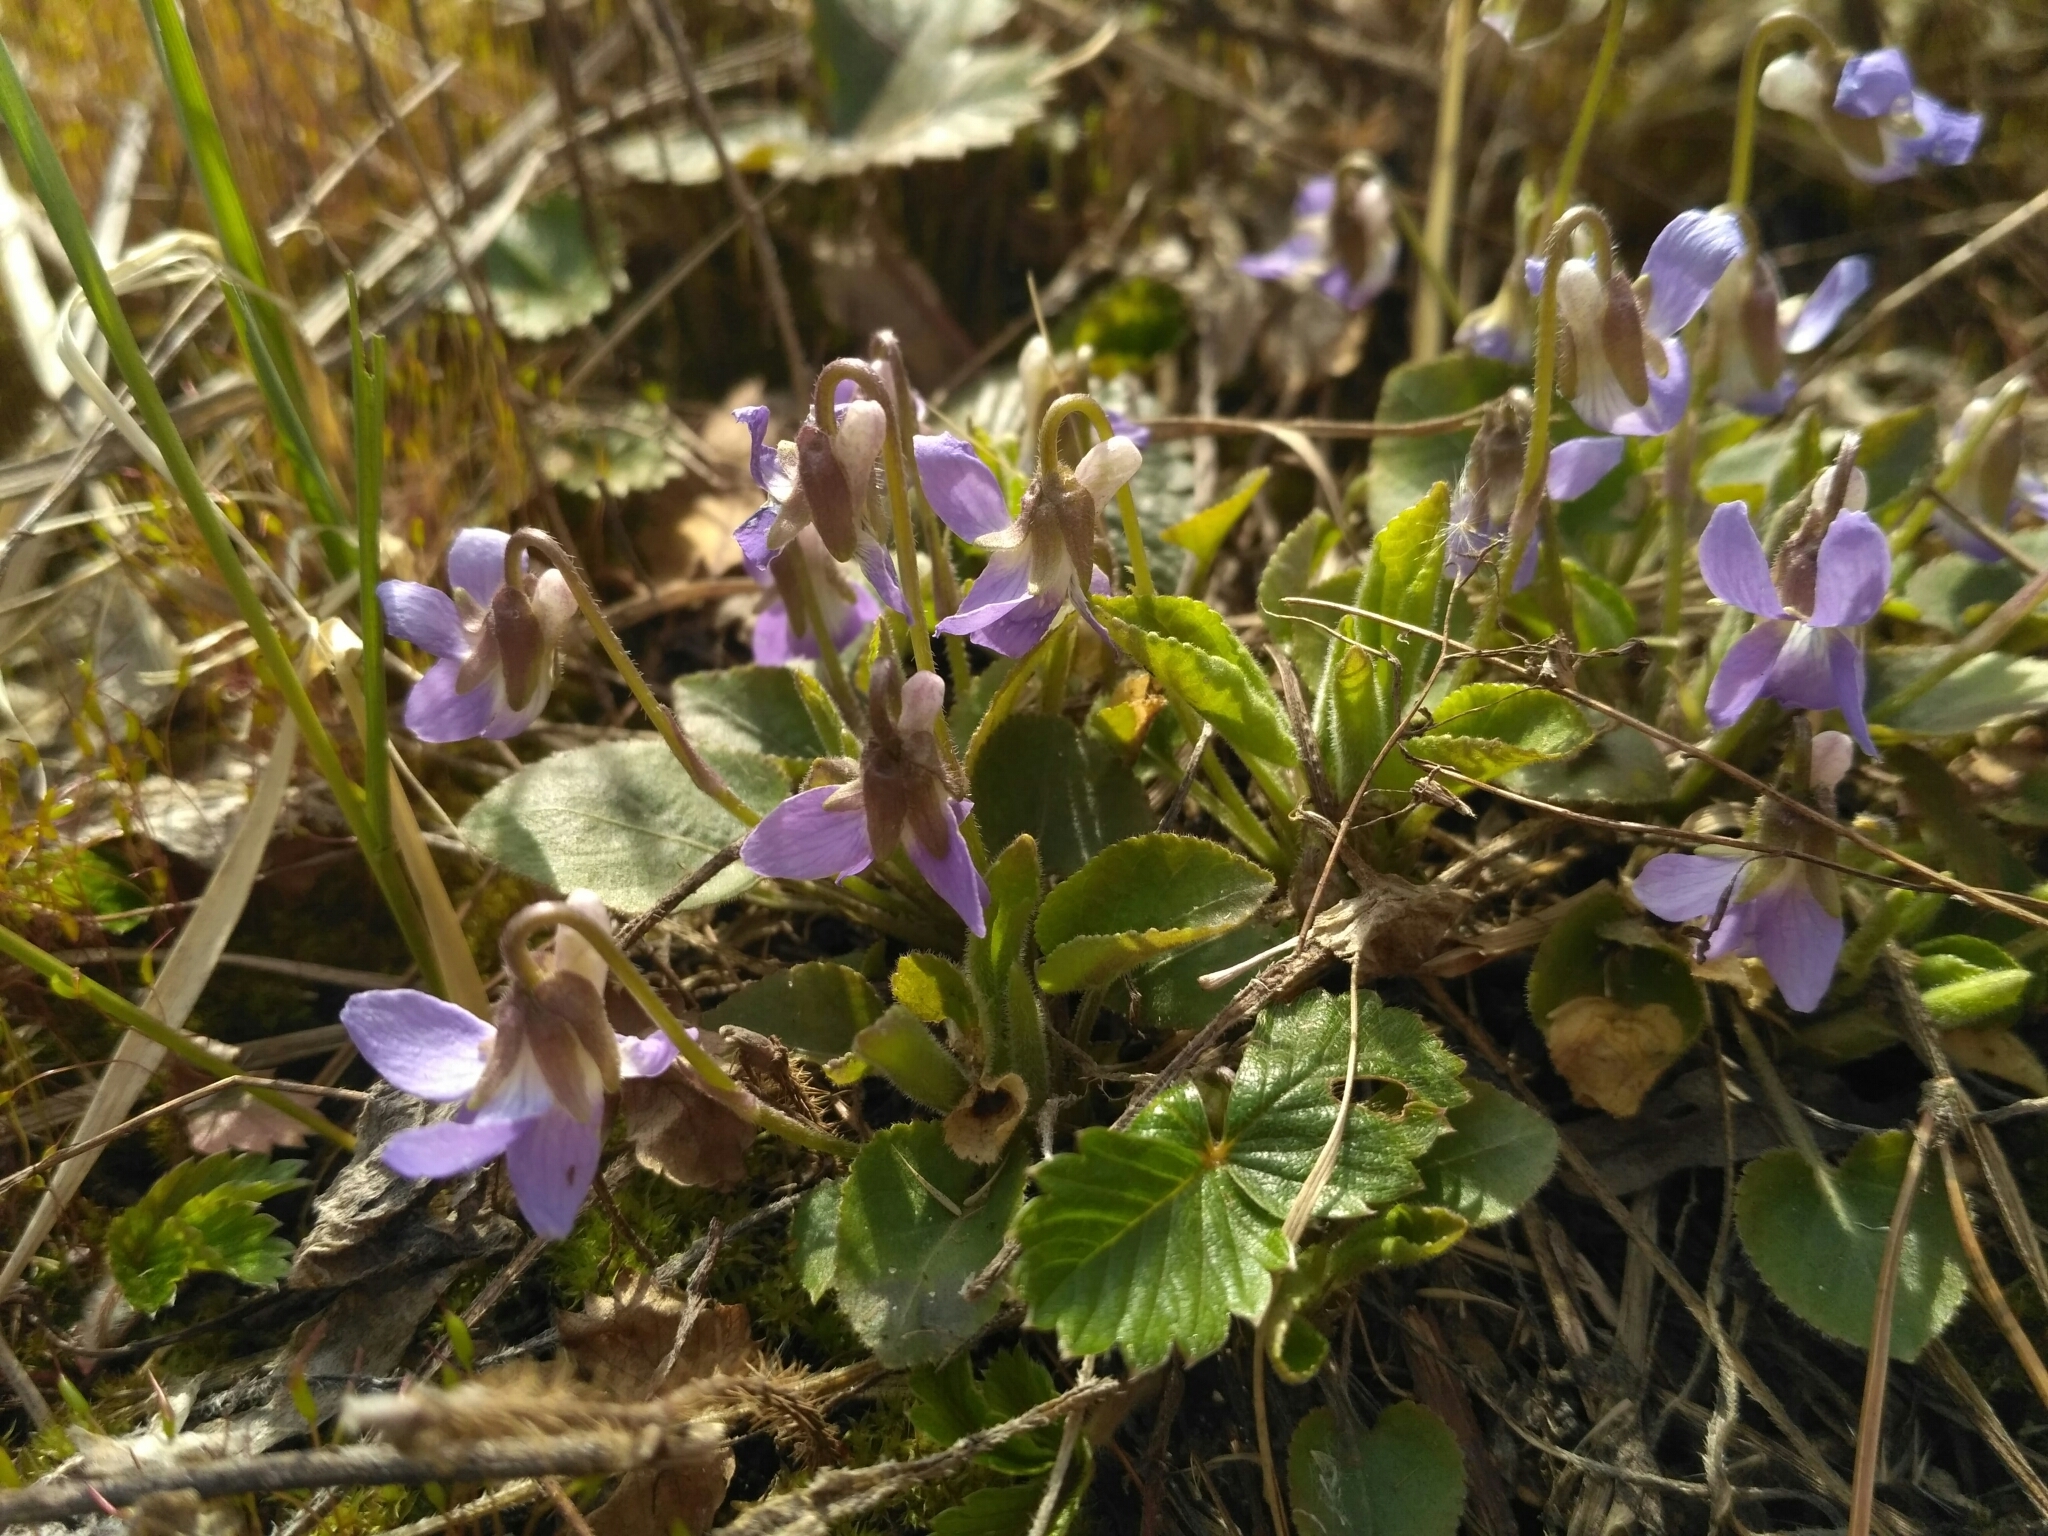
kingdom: Plantae
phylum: Tracheophyta
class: Magnoliopsida
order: Malpighiales
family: Violaceae
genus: Viola
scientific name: Viola rupestris
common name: Teesdale violet
